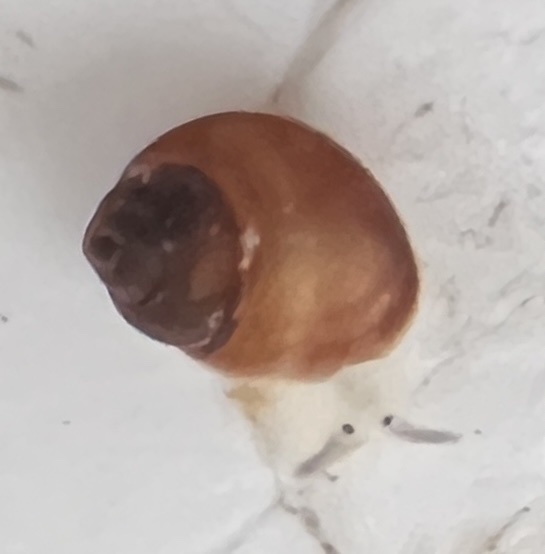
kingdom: Animalia
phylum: Mollusca
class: Gastropoda
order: Ellobiida
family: Ellobiidae
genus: Pedipes
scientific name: Pedipes ovalis
